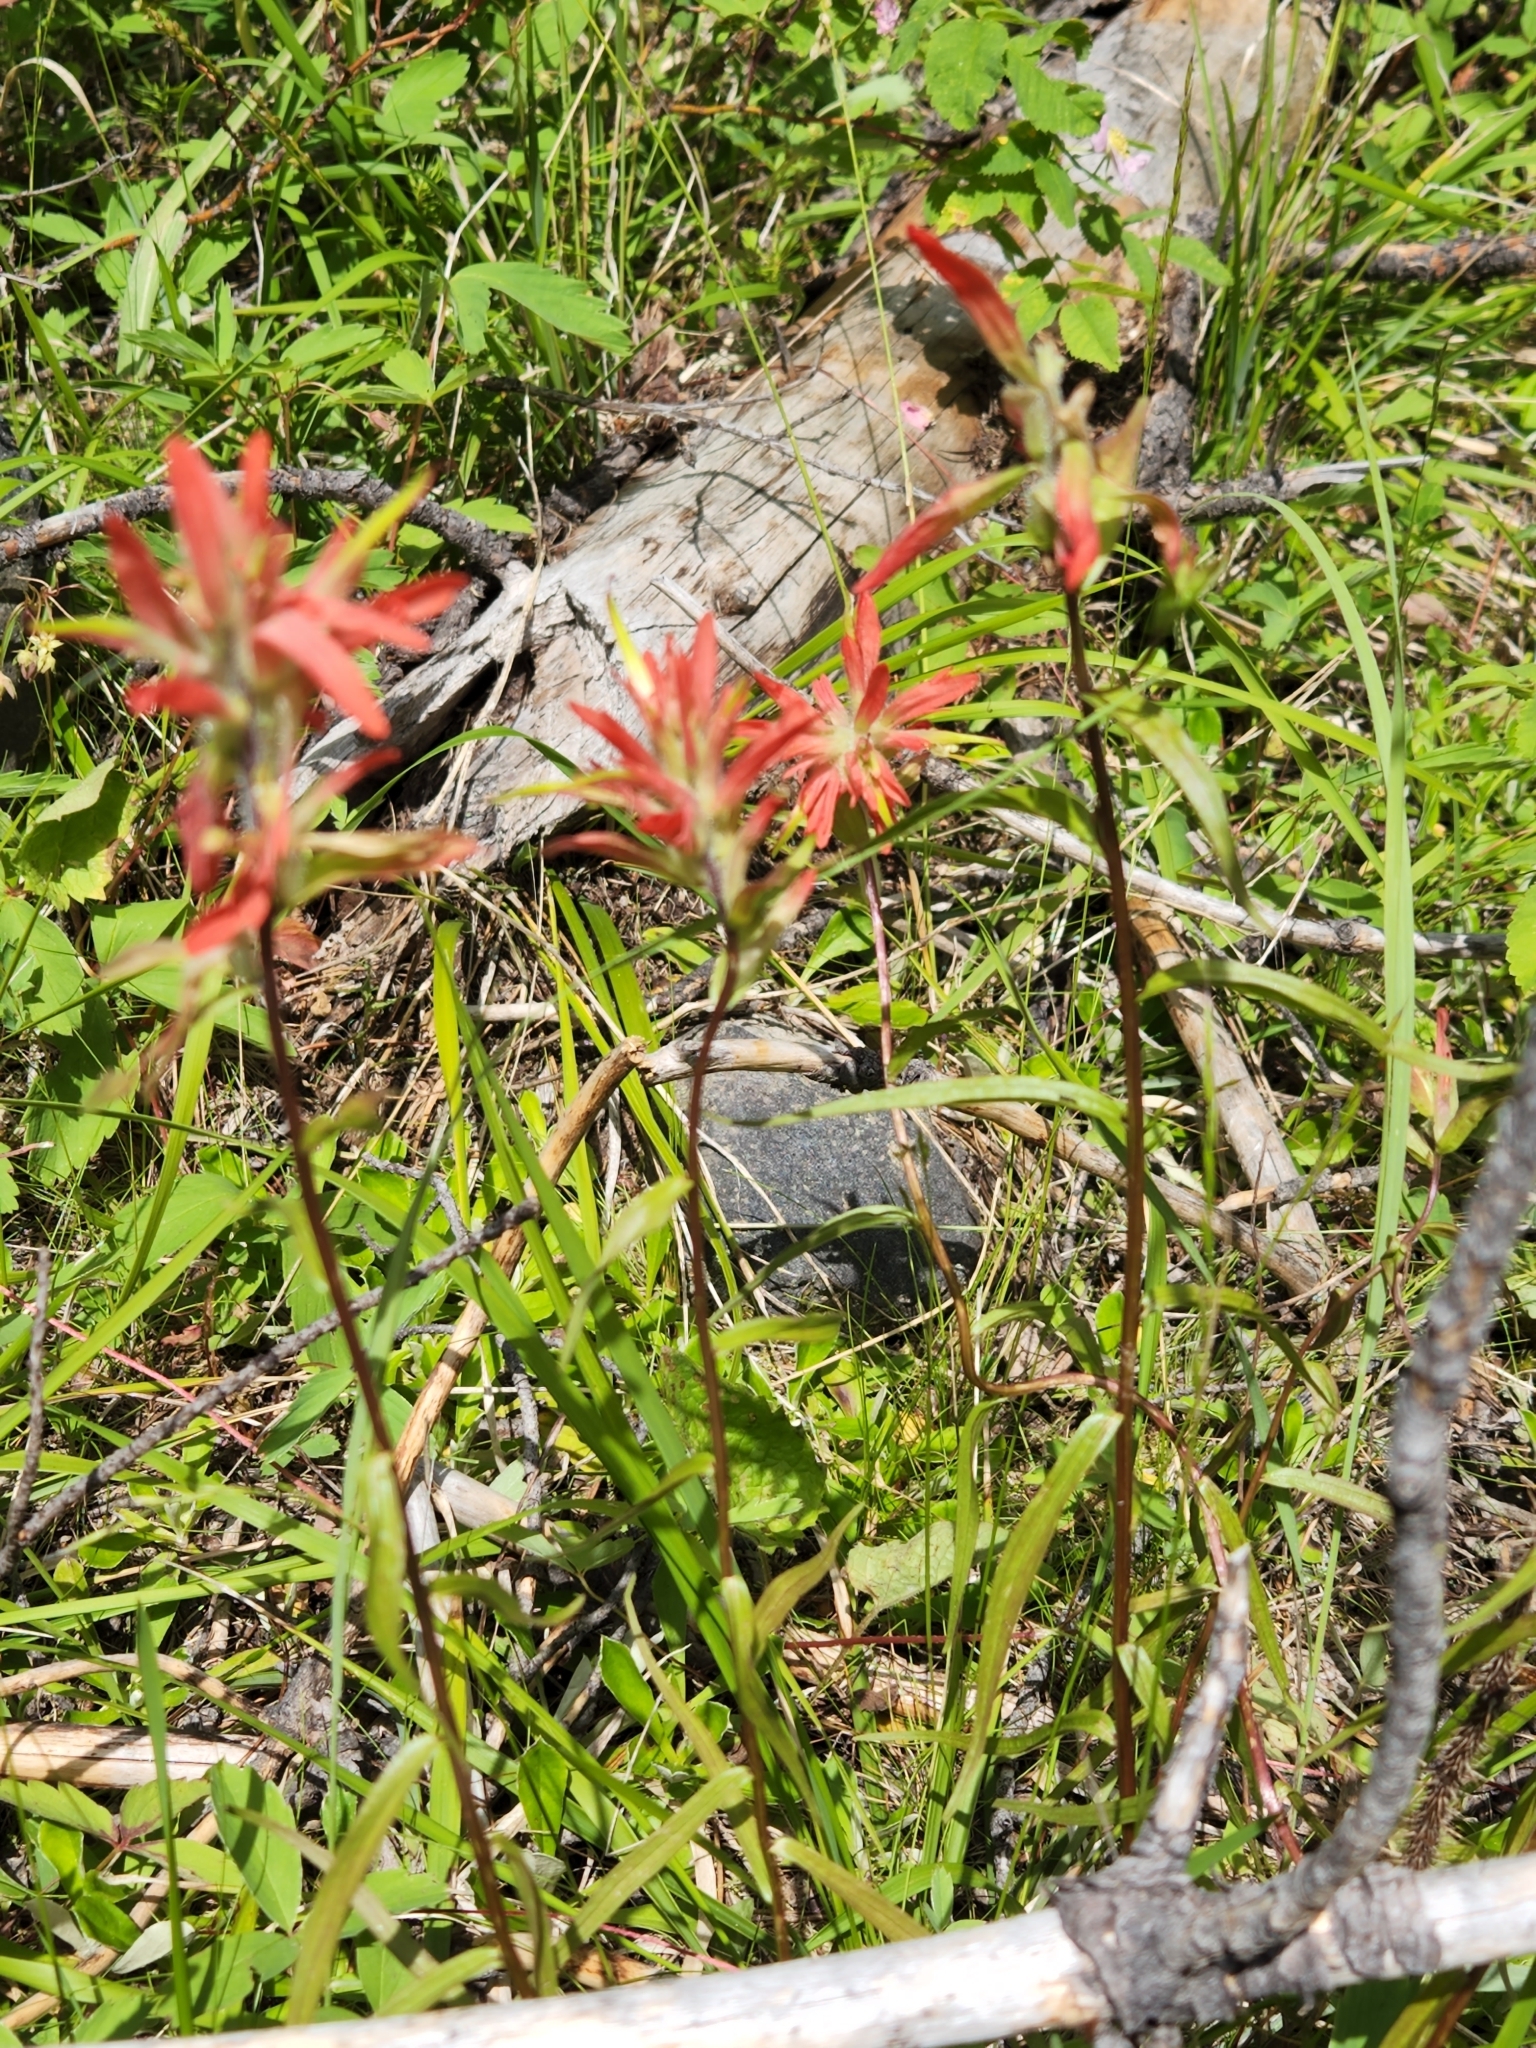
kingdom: Plantae
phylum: Tracheophyta
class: Magnoliopsida
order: Lamiales
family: Orobanchaceae
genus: Castilleja
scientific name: Castilleja miniata
